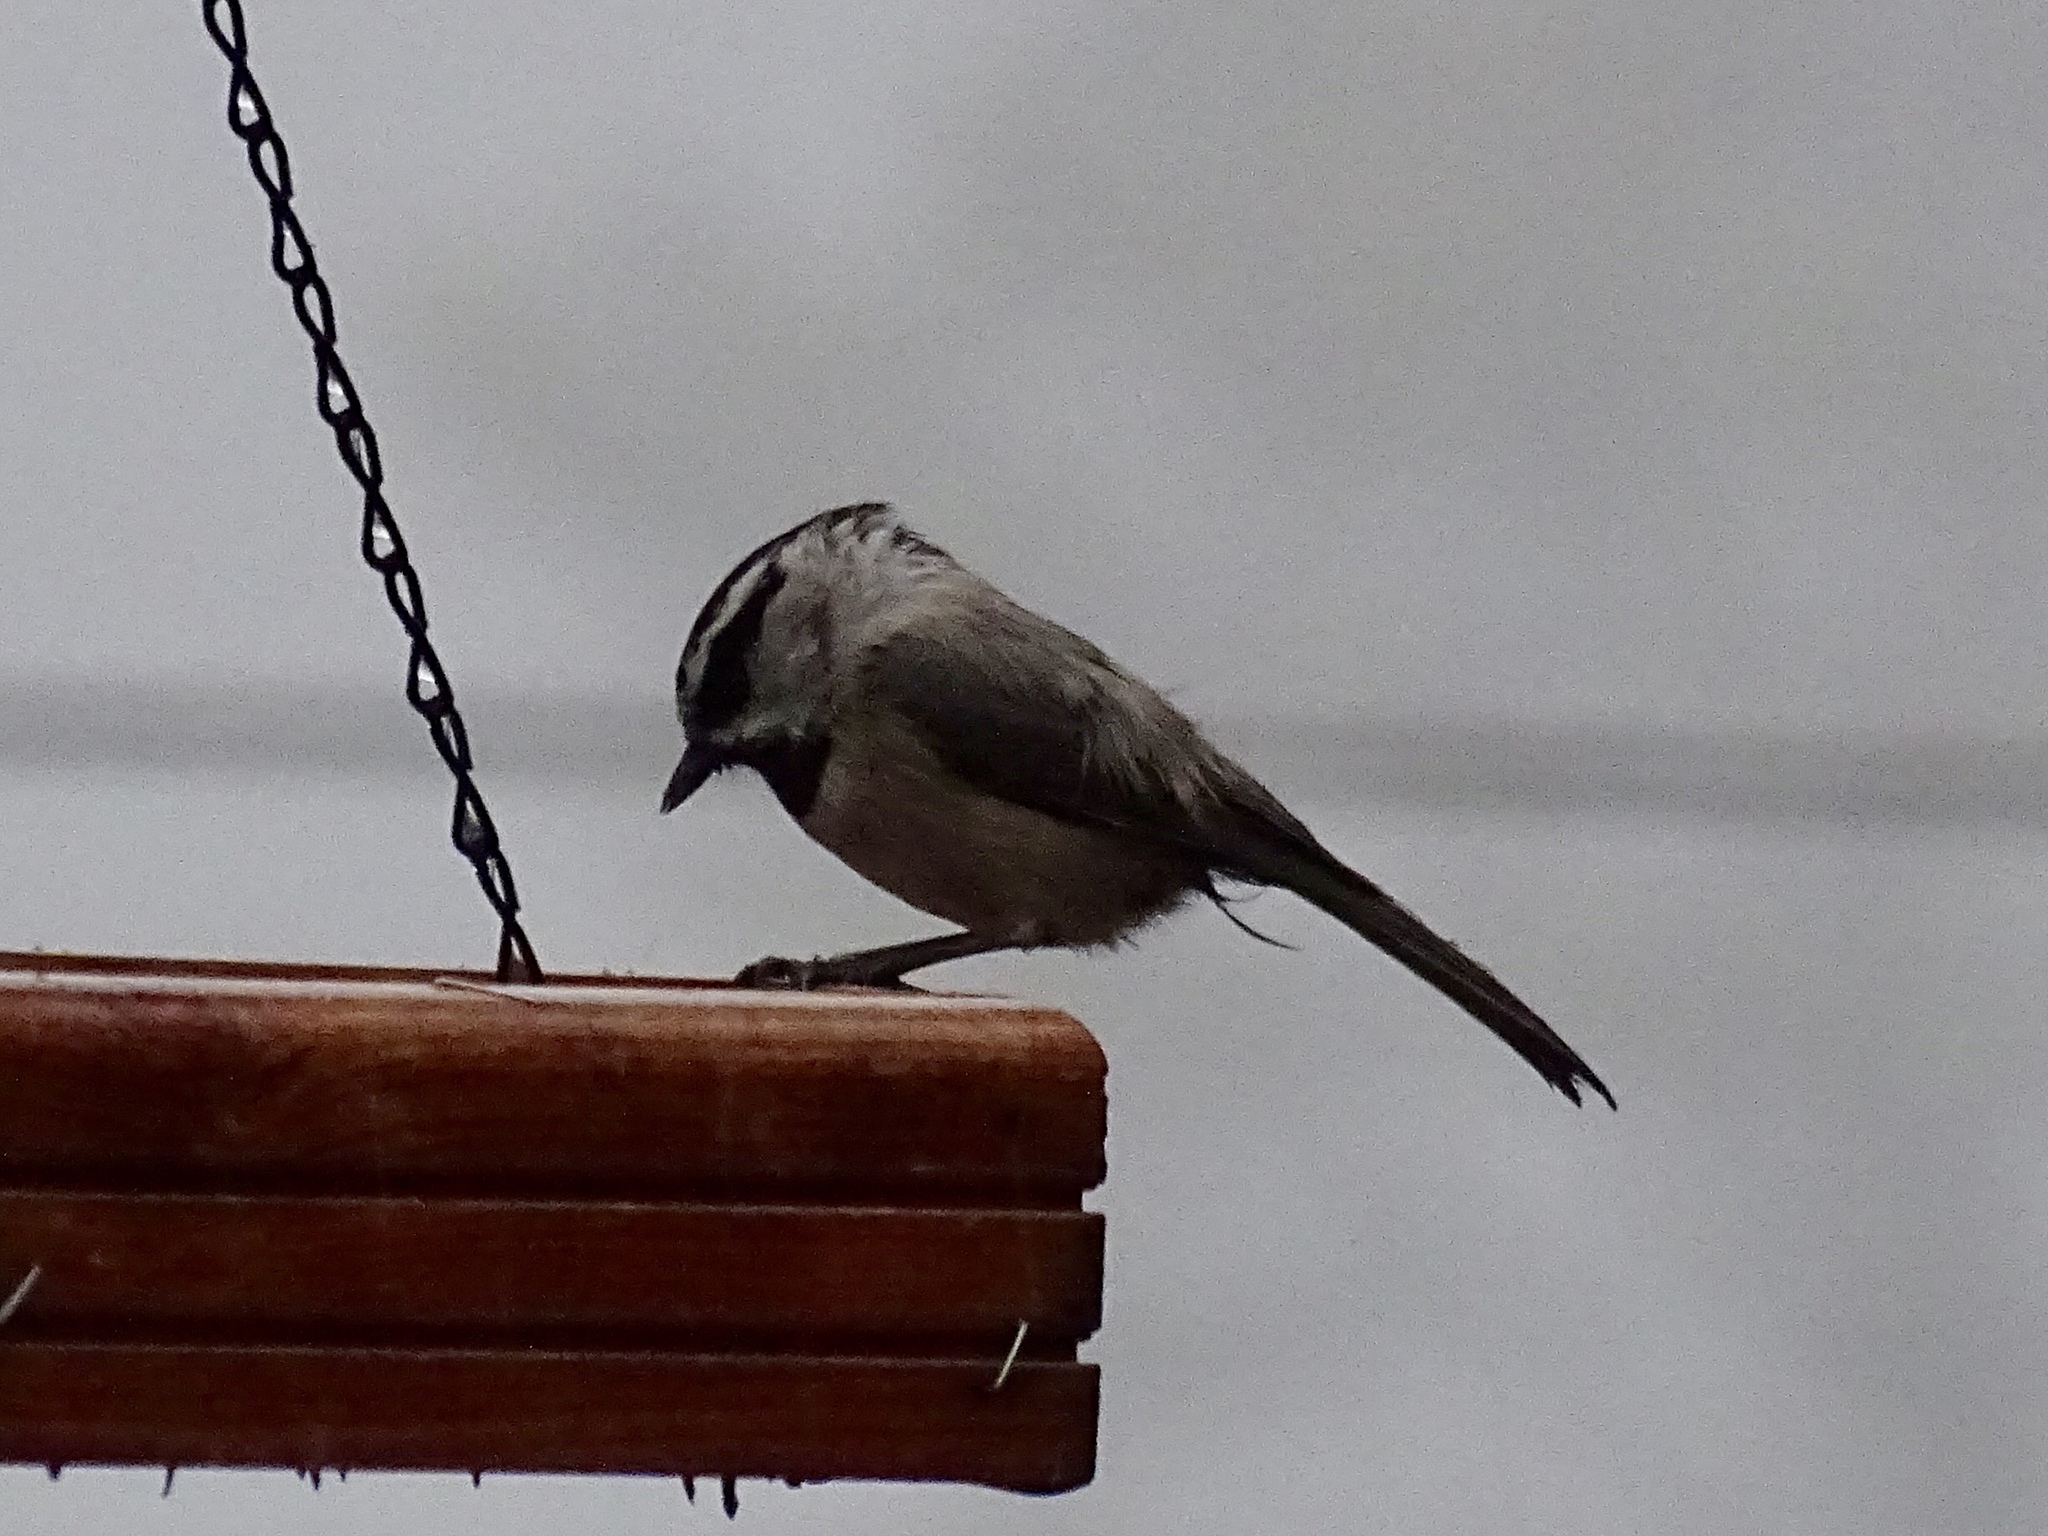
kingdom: Animalia
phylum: Chordata
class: Aves
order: Passeriformes
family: Paridae
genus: Poecile
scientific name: Poecile gambeli
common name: Mountain chickadee
